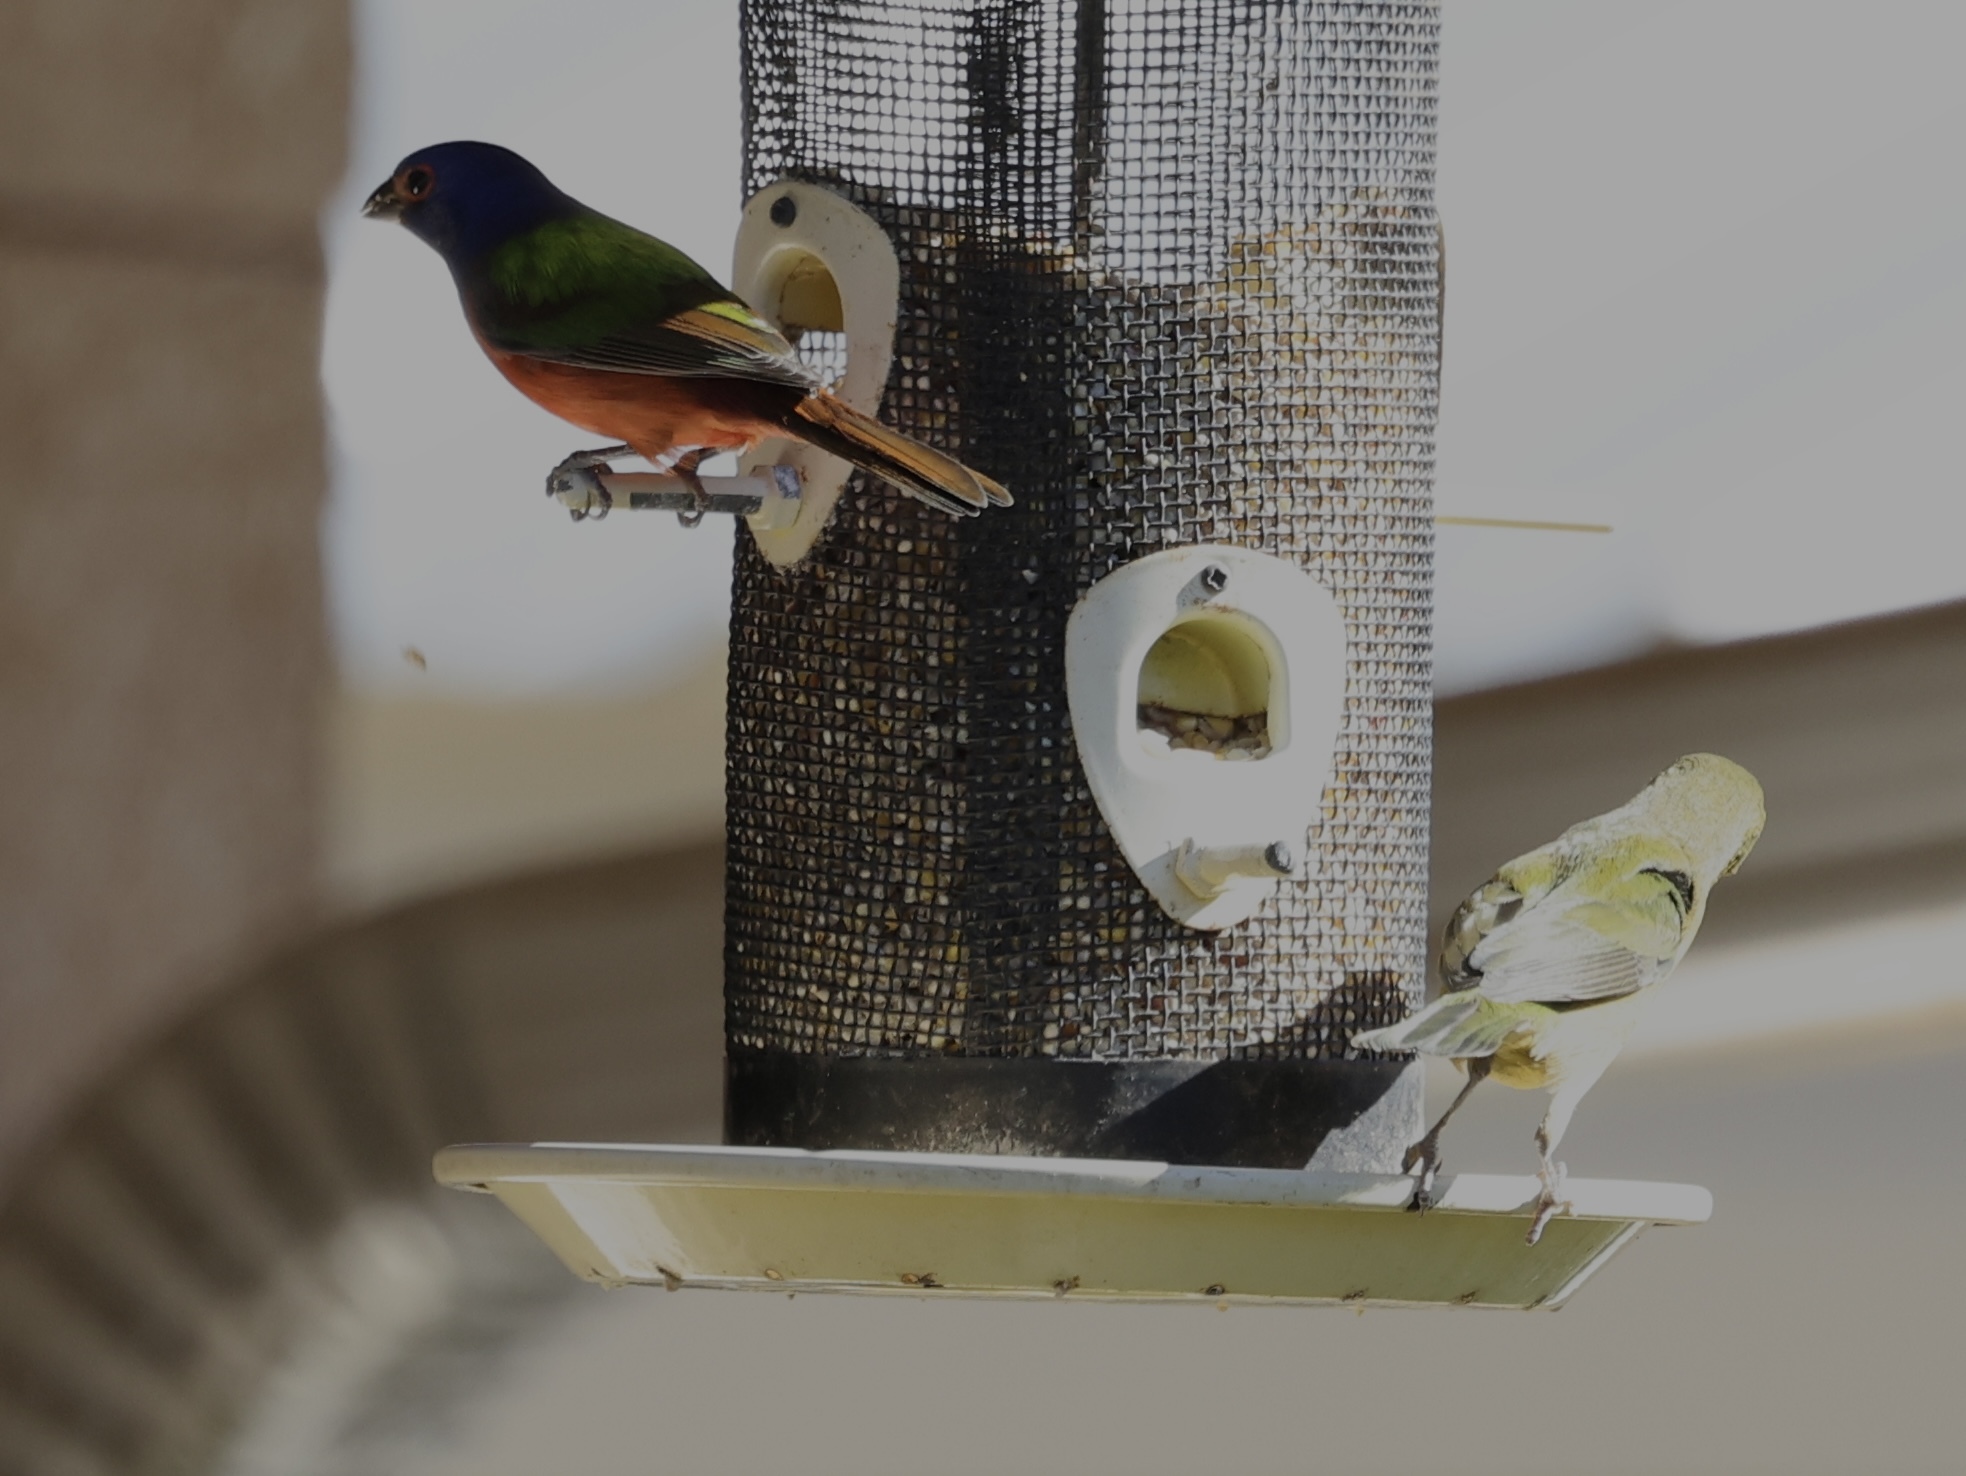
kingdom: Animalia
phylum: Chordata
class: Aves
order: Passeriformes
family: Cardinalidae
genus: Passerina
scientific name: Passerina ciris
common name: Painted bunting
